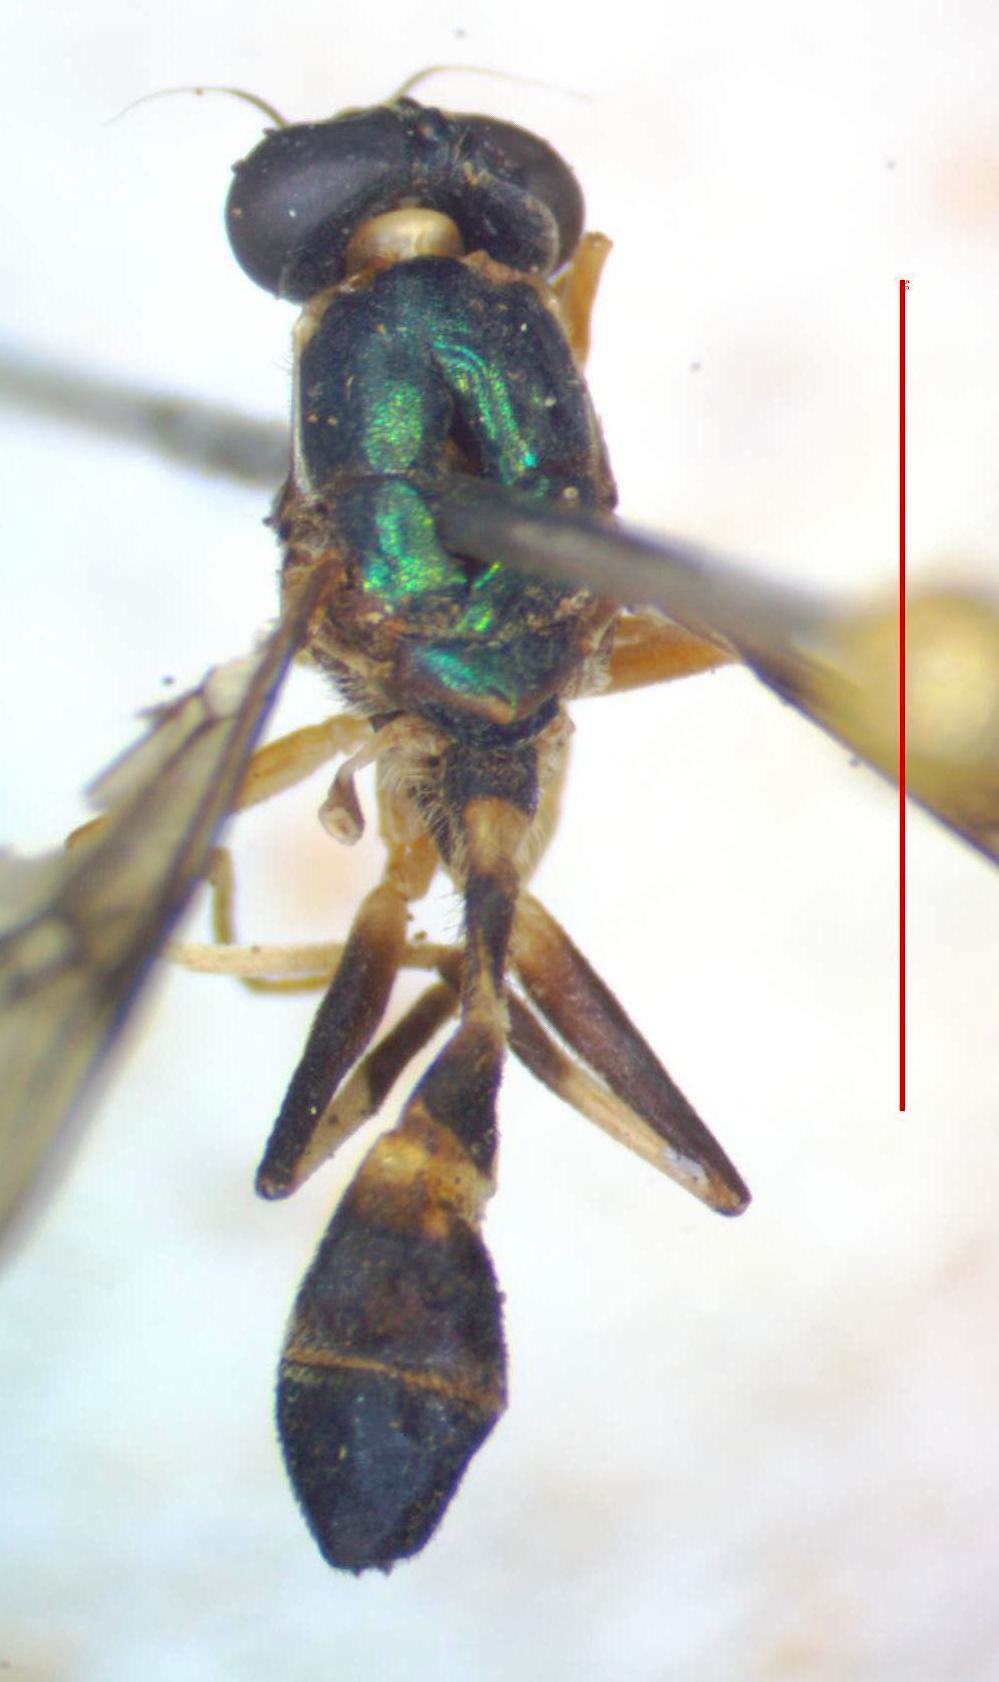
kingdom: Animalia
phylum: Arthropoda
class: Insecta
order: Diptera
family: Stratiomyidae
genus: Merosargus
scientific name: Merosargus cingulatus
